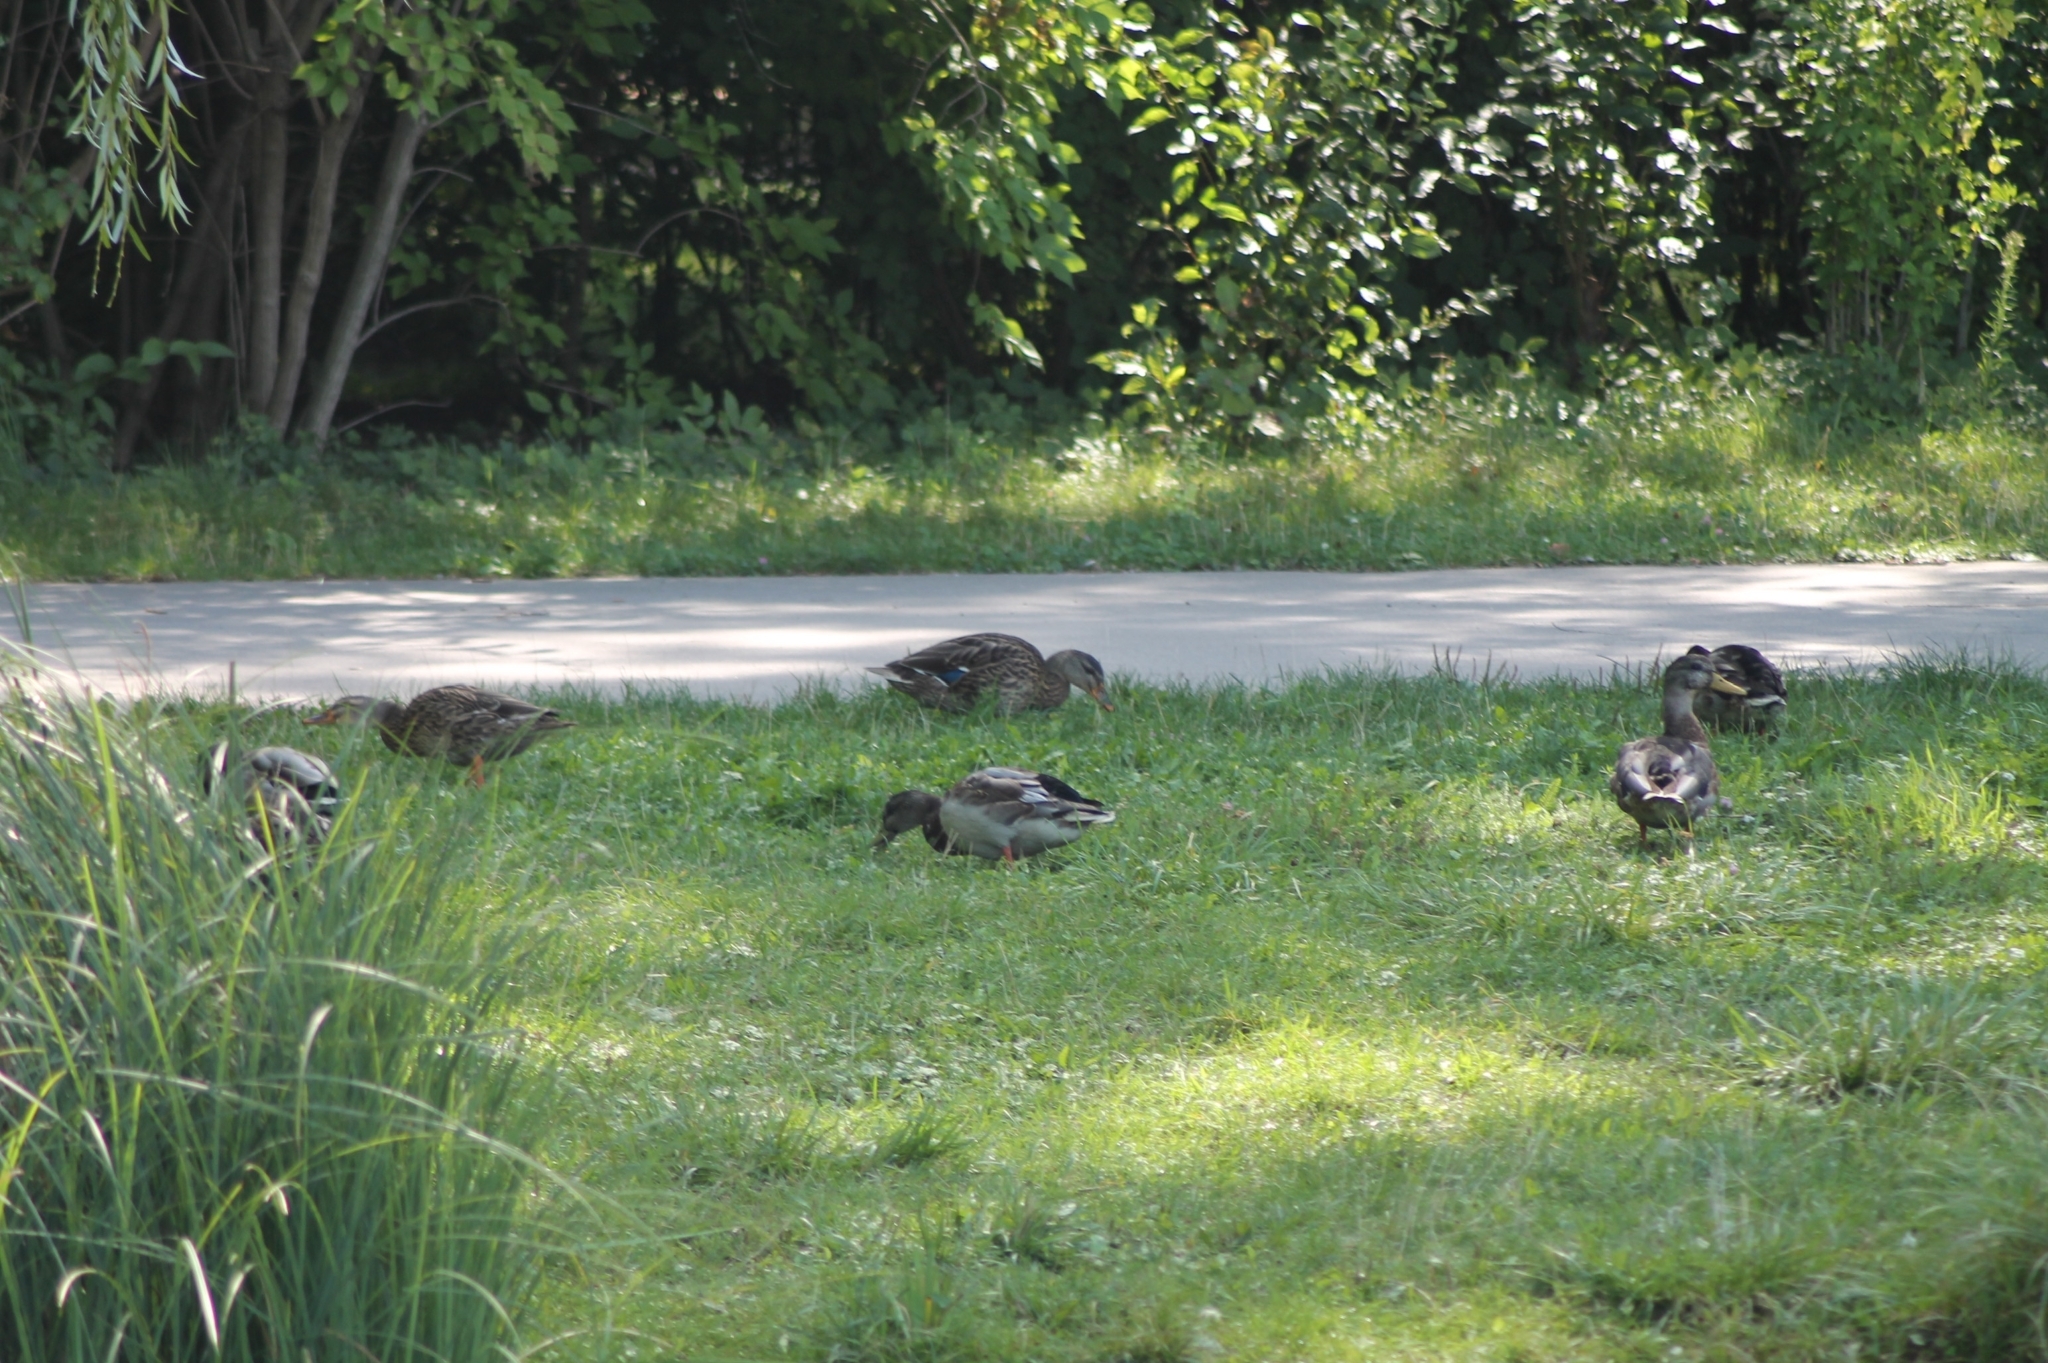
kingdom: Animalia
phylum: Chordata
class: Aves
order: Anseriformes
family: Anatidae
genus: Anas
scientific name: Anas platyrhynchos
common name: Mallard
